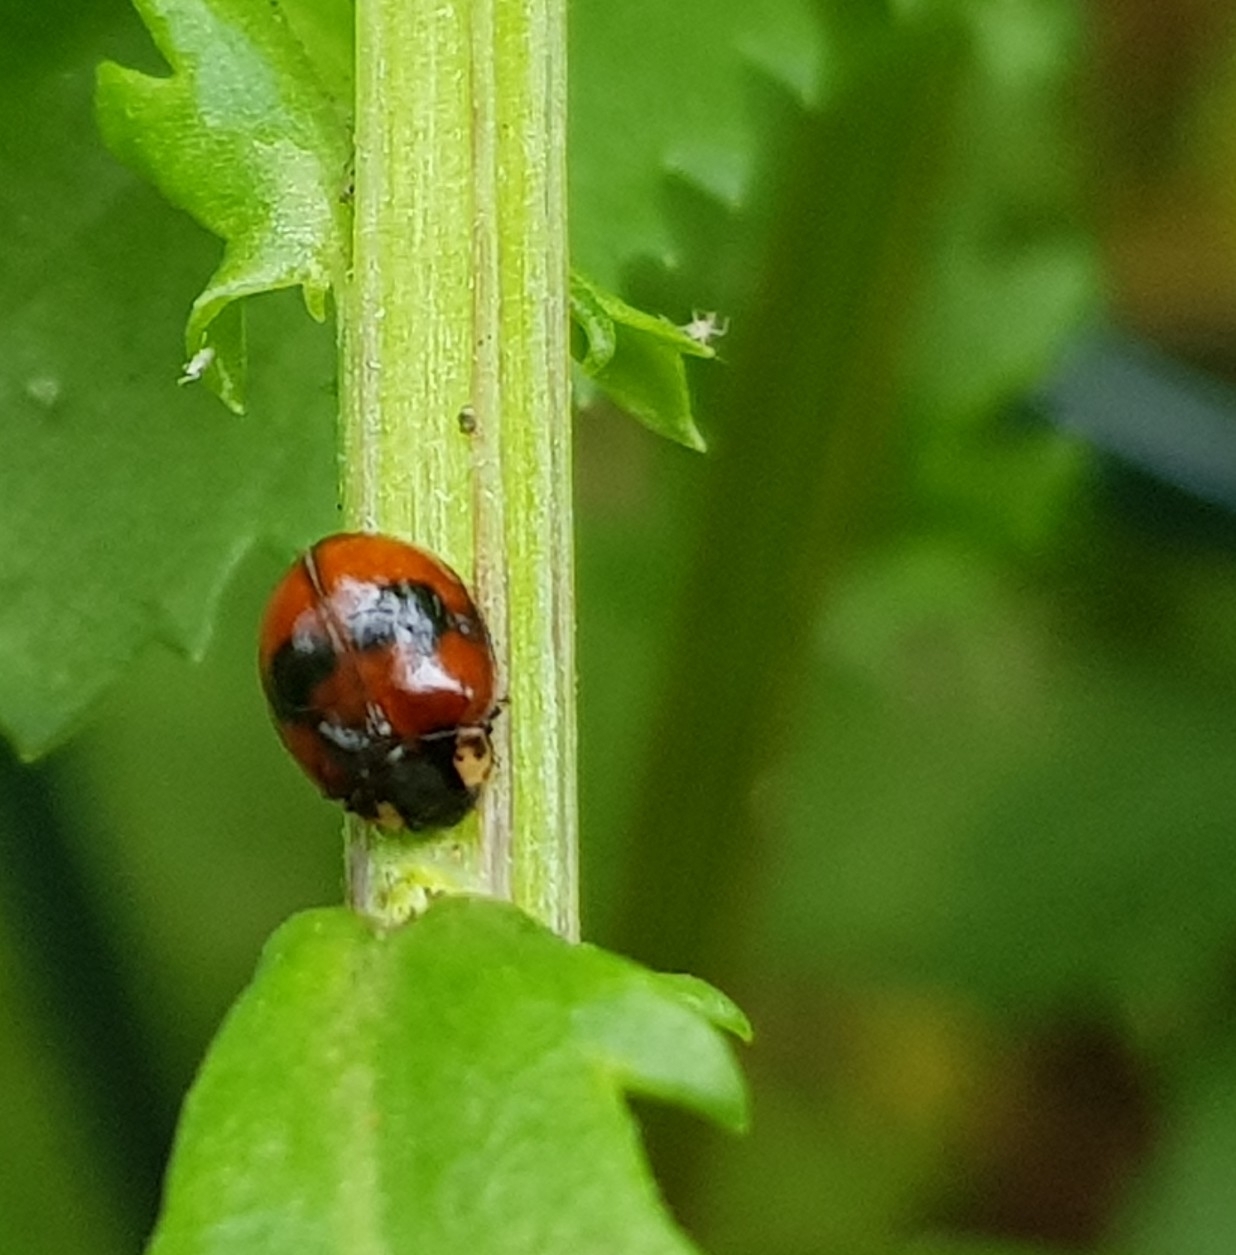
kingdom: Animalia
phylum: Arthropoda
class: Insecta
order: Coleoptera
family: Coccinellidae
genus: Adalia
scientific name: Adalia bipunctata
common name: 2-spot ladybird
